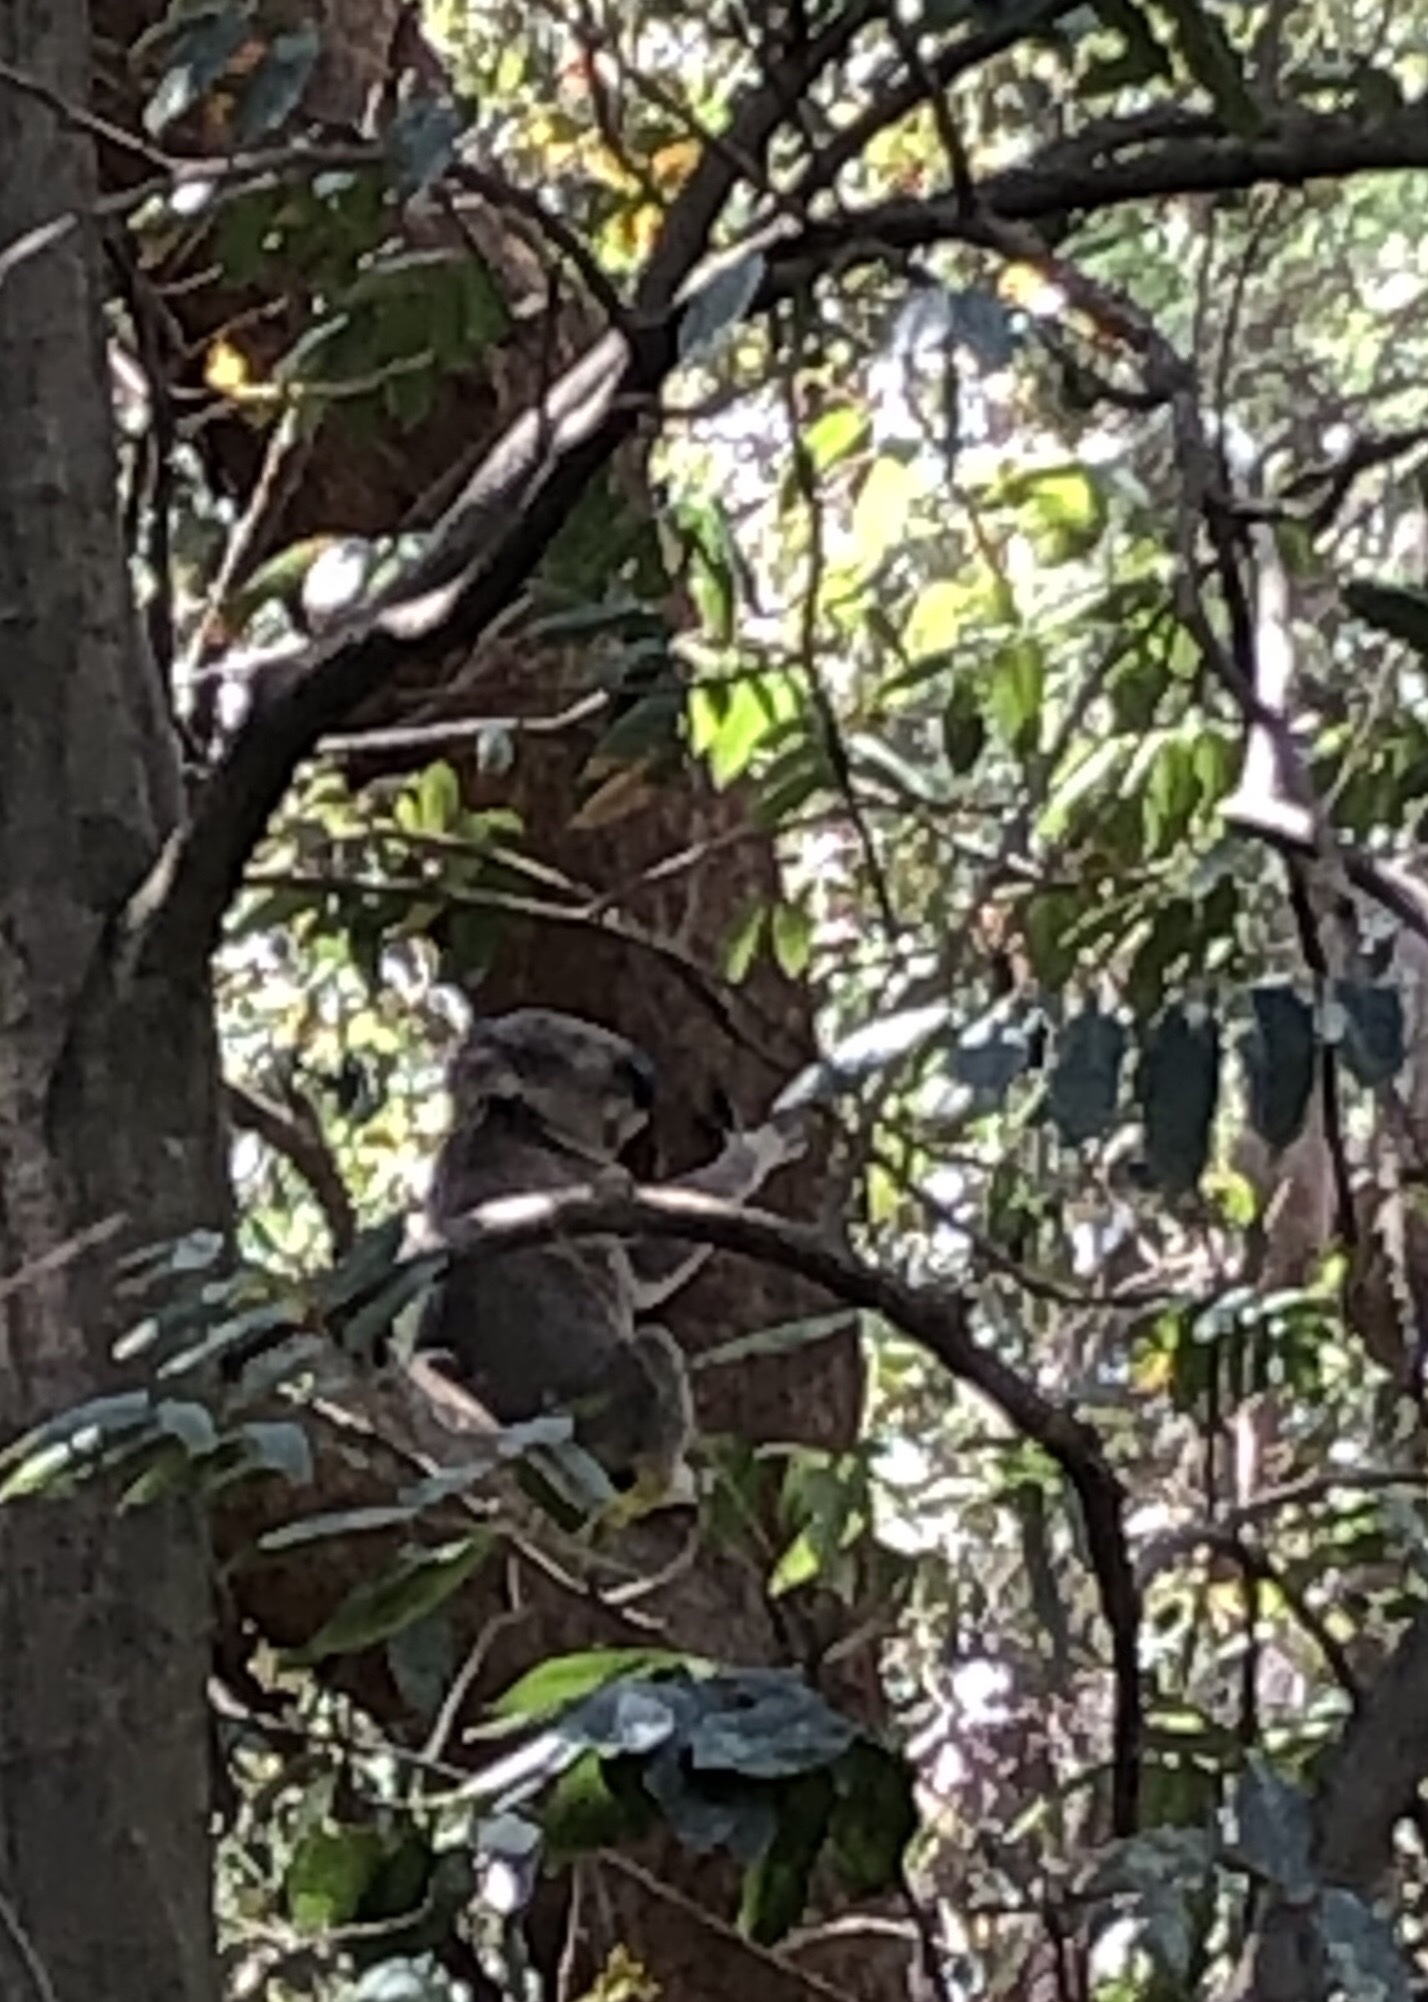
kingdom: Animalia
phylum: Chordata
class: Mammalia
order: Diprotodontia
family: Phascolarctidae
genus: Phascolarctos
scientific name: Phascolarctos cinereus
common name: Koala
